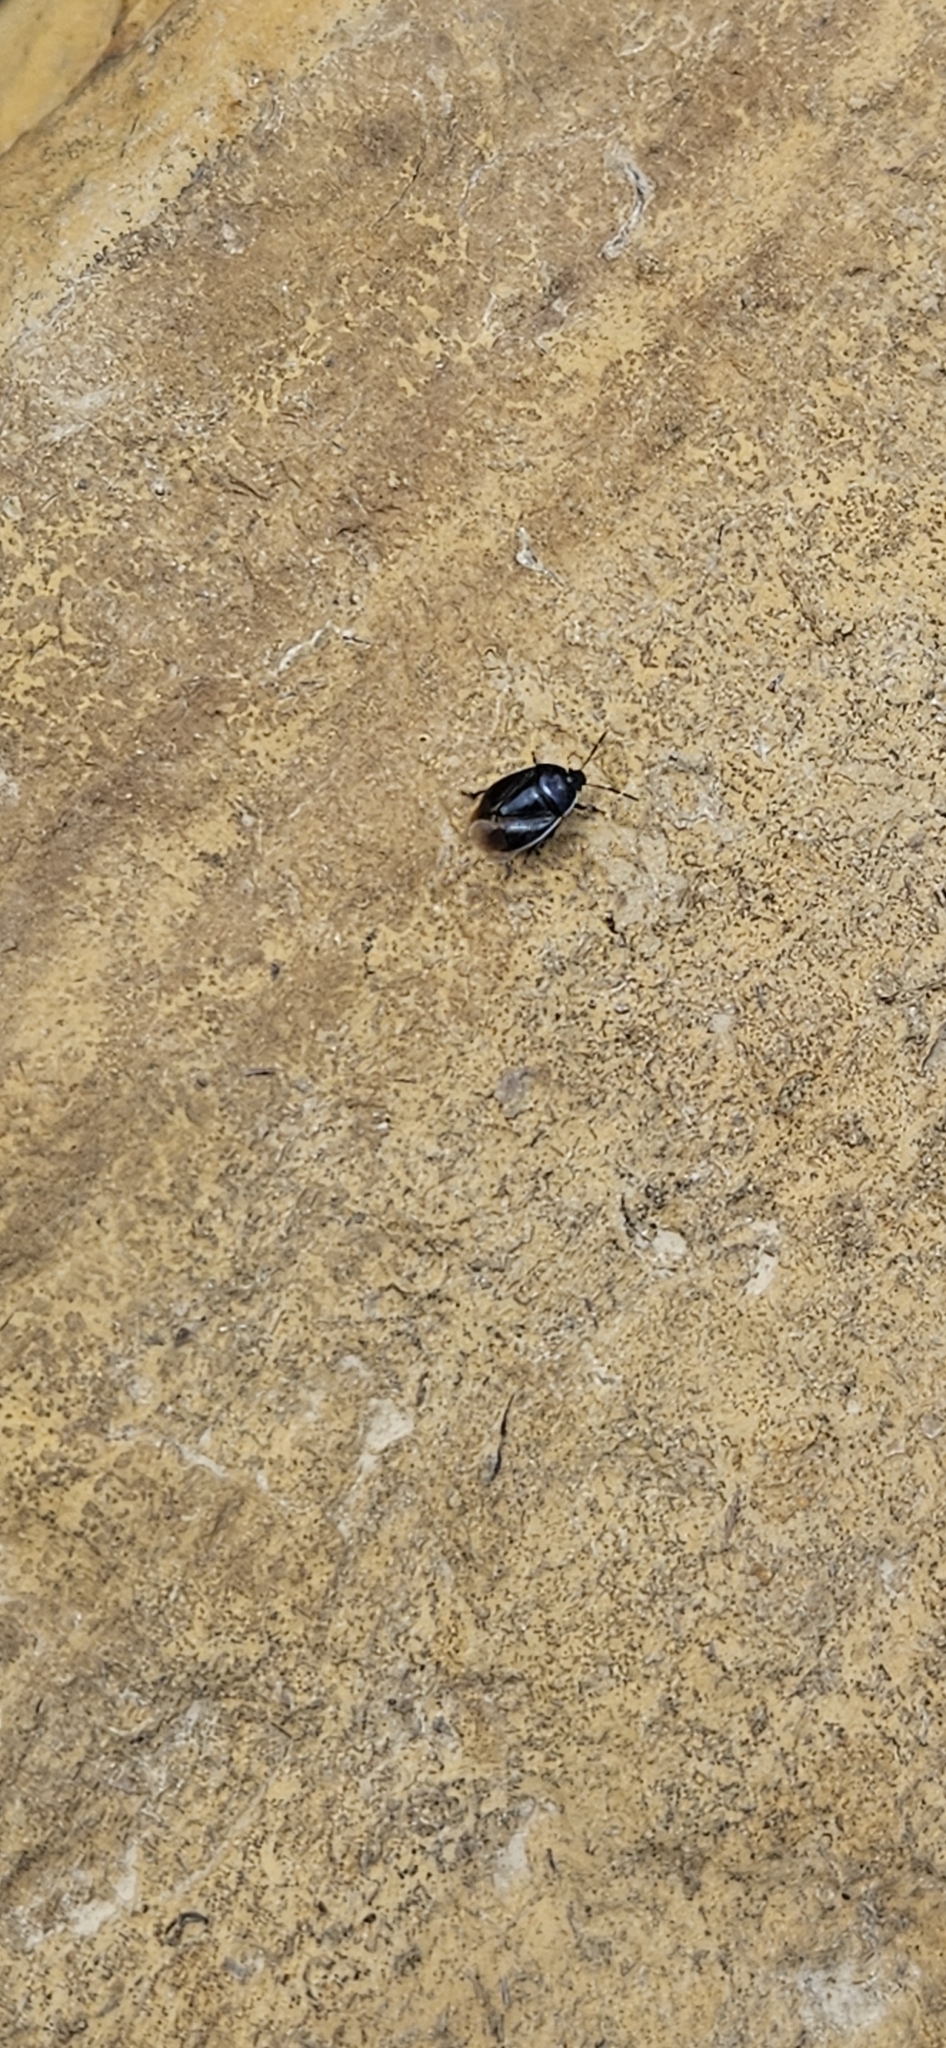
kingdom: Animalia
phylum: Arthropoda
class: Insecta
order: Hemiptera
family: Cydnidae
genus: Sehirus
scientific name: Sehirus cinctus
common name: White-margined burrower bug
